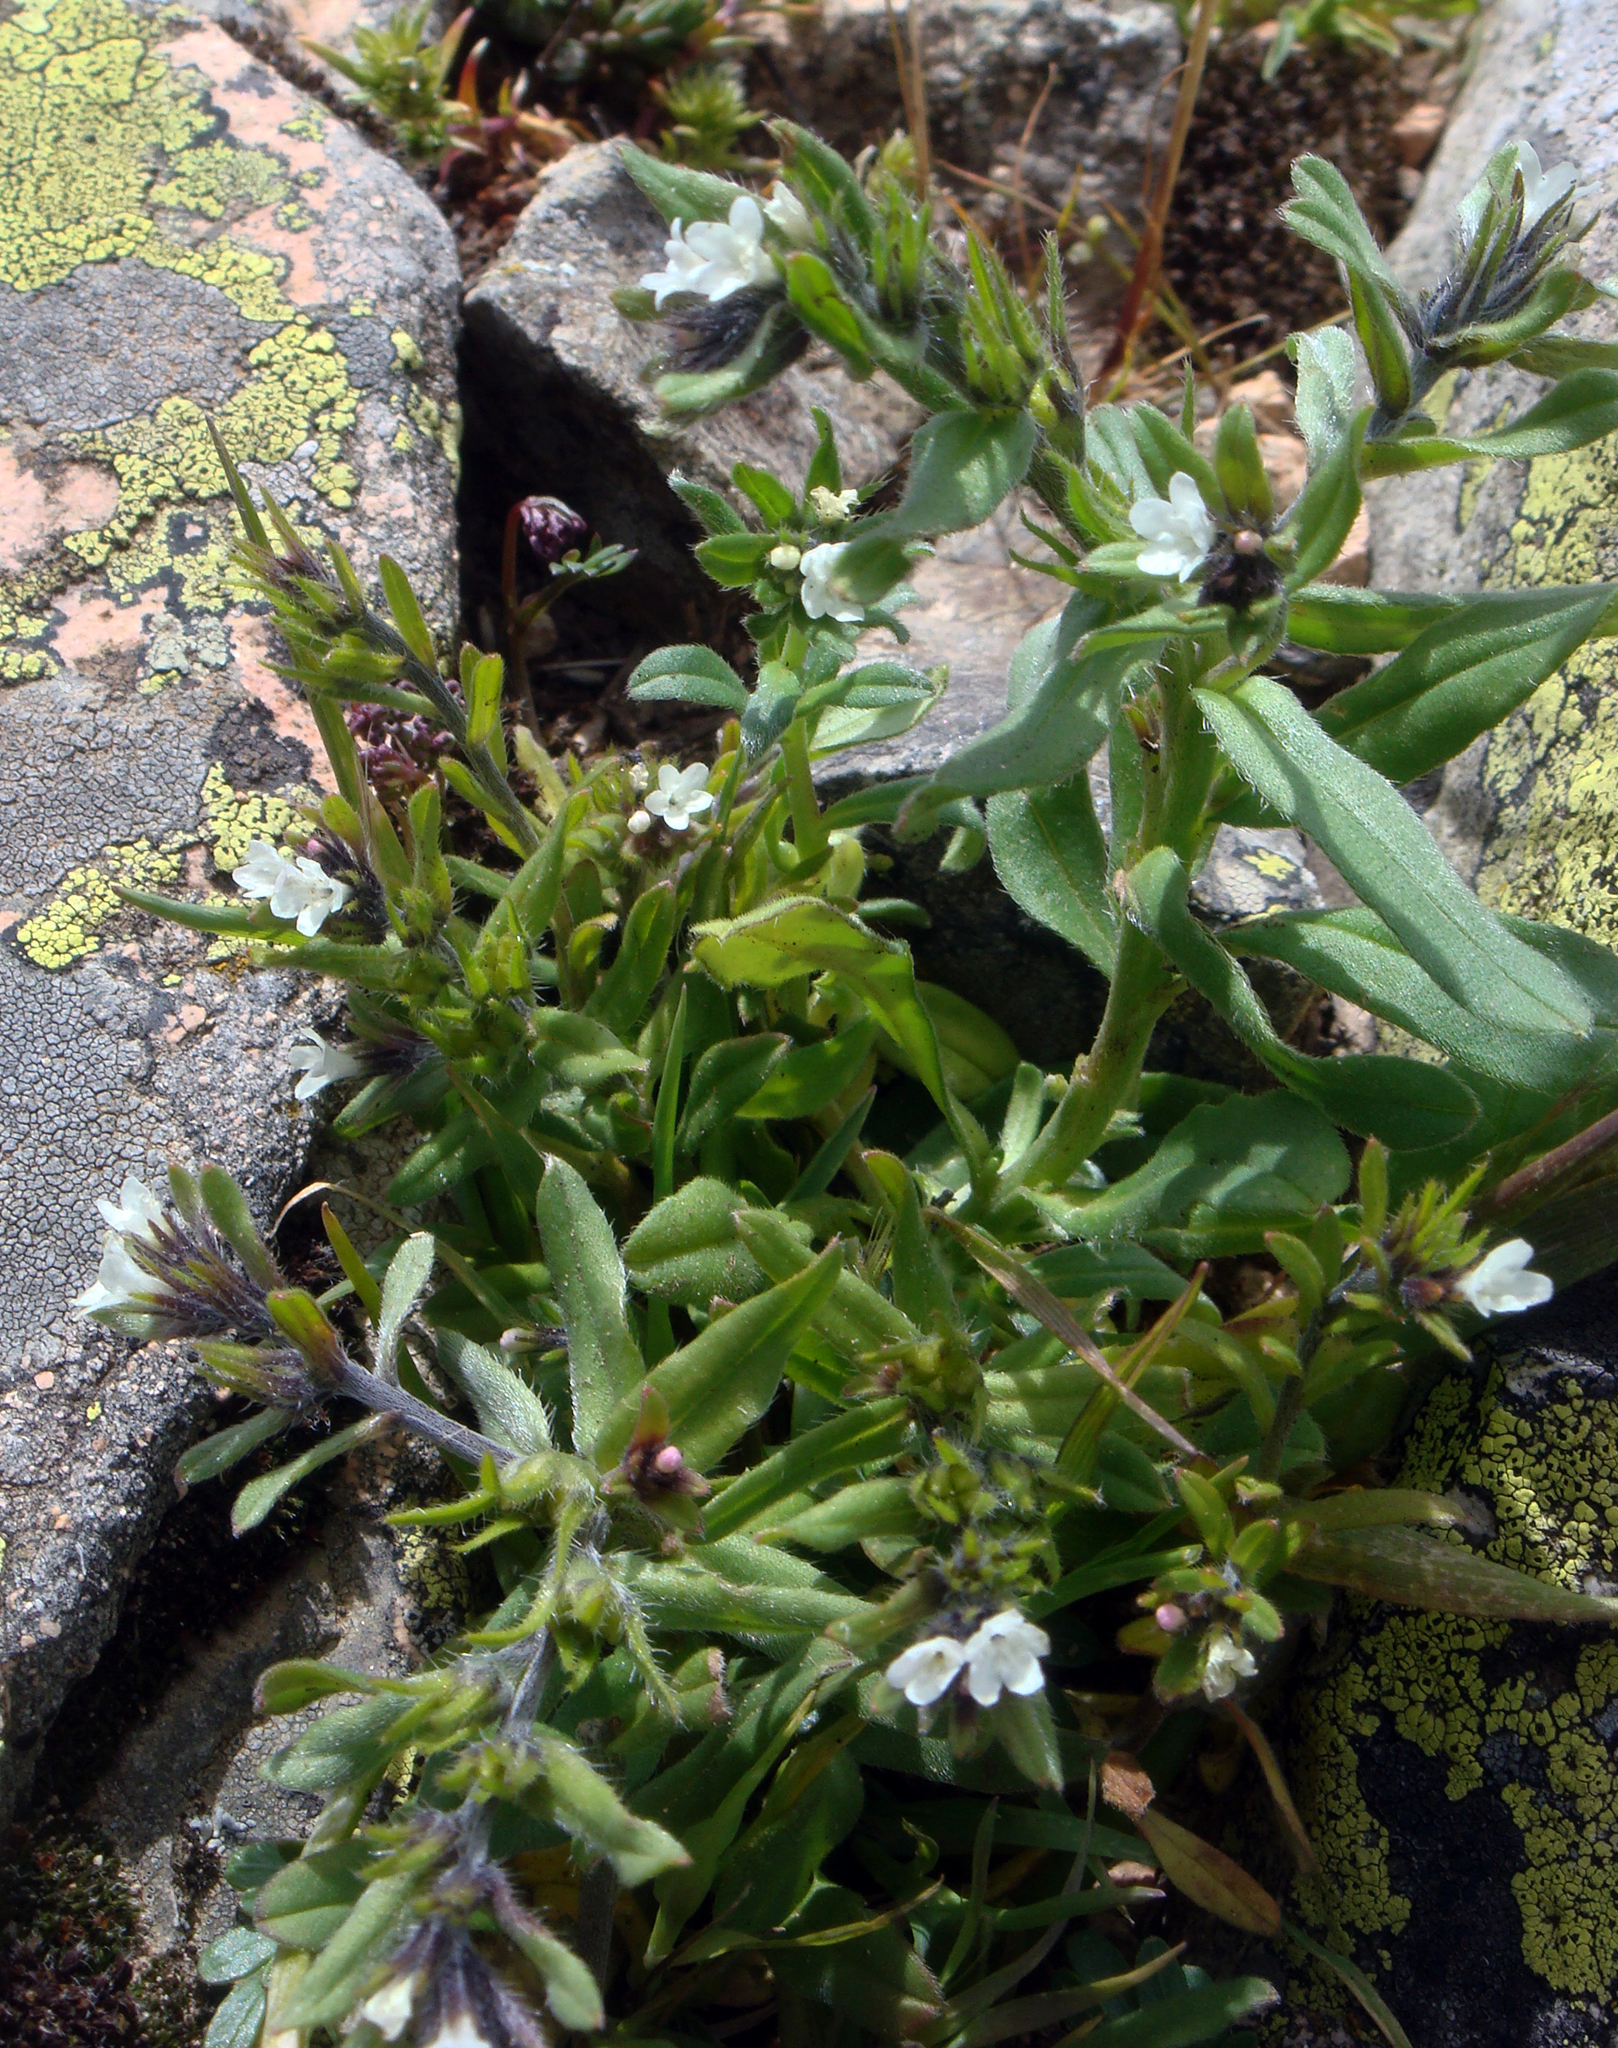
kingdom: Plantae
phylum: Tracheophyta
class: Magnoliopsida
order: Boraginales
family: Boraginaceae
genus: Buglossoides
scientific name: Buglossoides arvensis
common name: Corn gromwell
